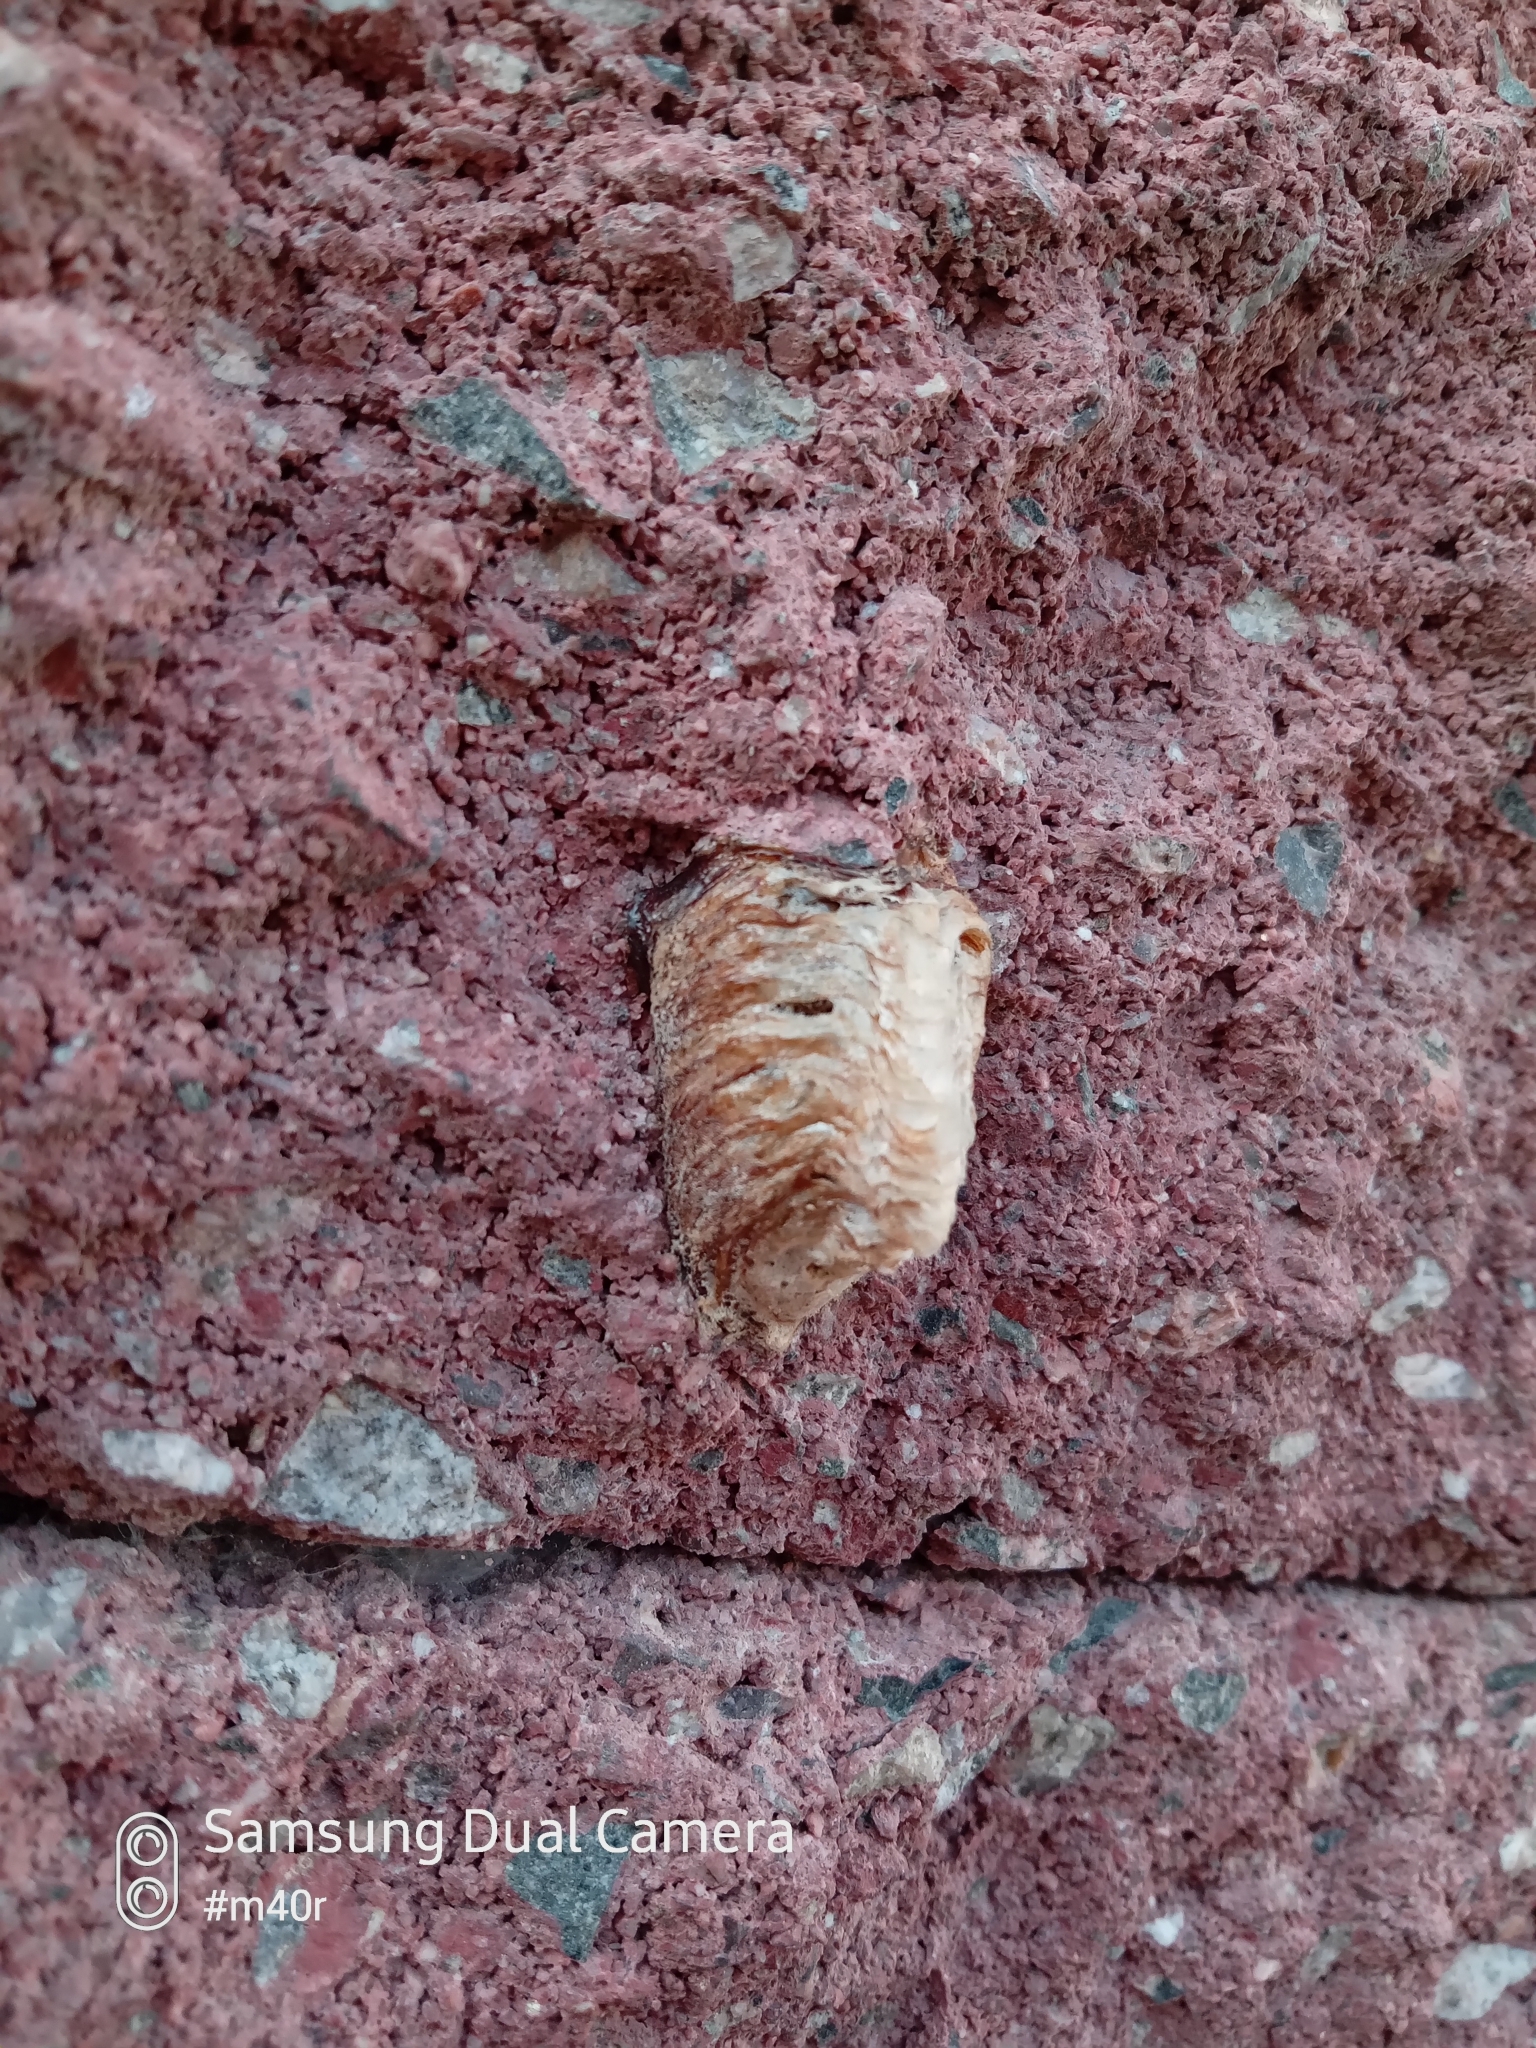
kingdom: Animalia
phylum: Arthropoda
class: Insecta
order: Mantodea
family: Mantidae
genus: Hierodula
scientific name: Hierodula tenuidentata
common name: Giant asian mantis
